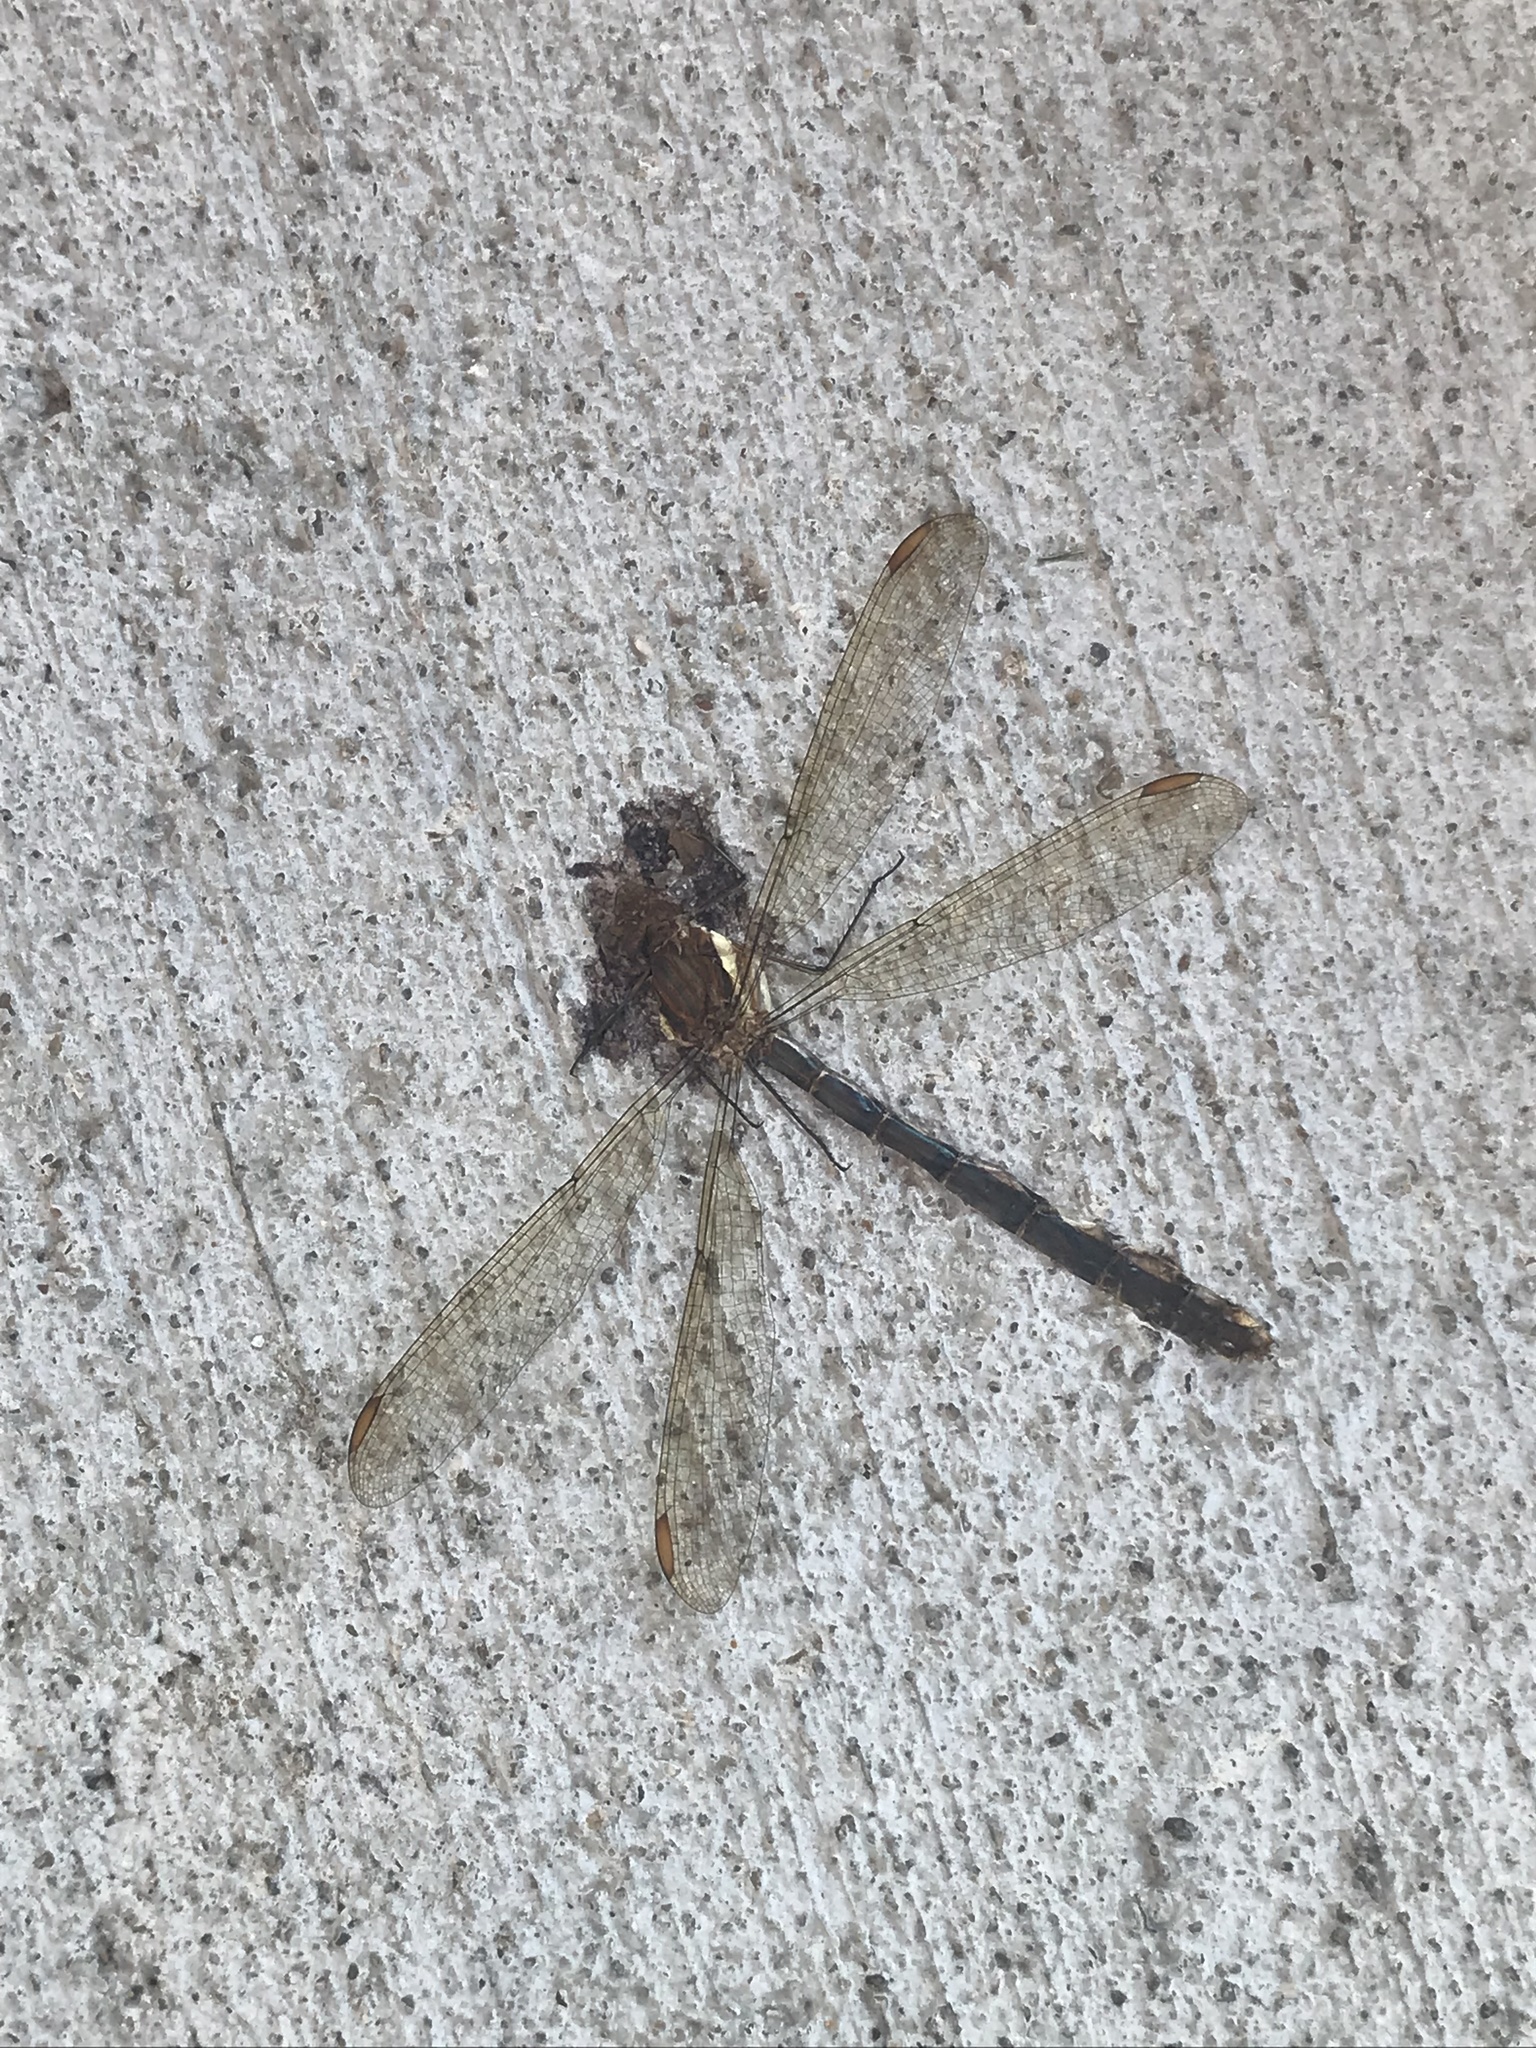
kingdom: Animalia
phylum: Arthropoda
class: Insecta
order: Odonata
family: Lestidae
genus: Archilestes
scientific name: Archilestes grandis
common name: Great spreadwing
